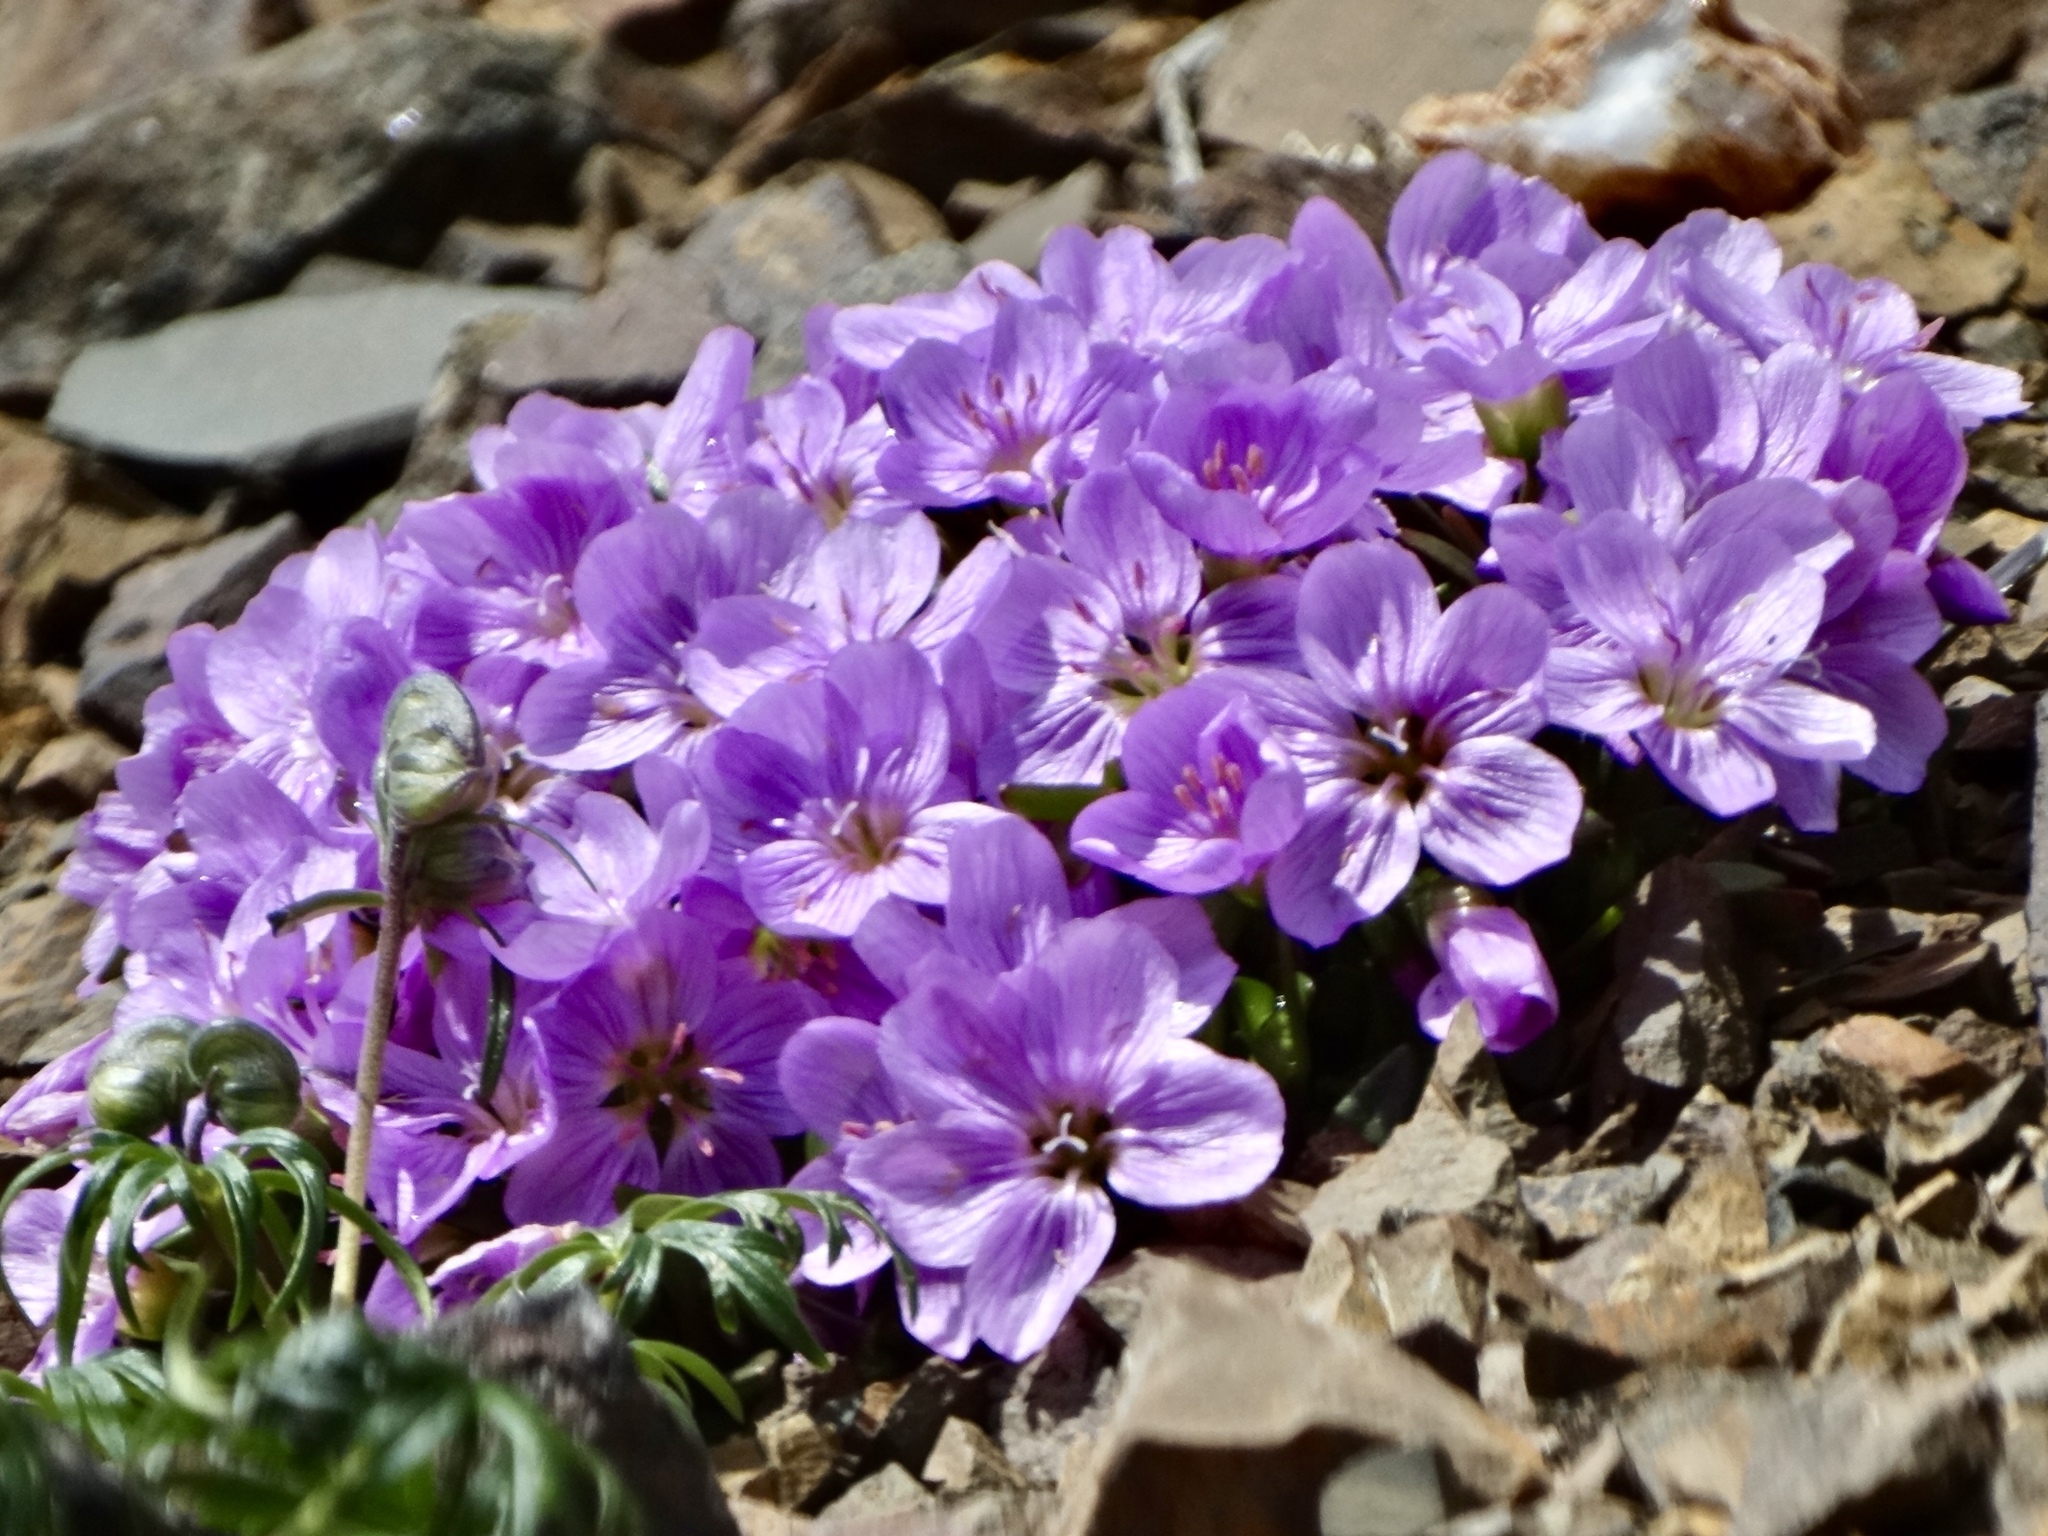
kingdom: Plantae
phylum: Tracheophyta
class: Magnoliopsida
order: Caryophyllales
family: Montiaceae
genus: Claytonia
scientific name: Claytonia scammaniana
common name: Scamman's claytonia
